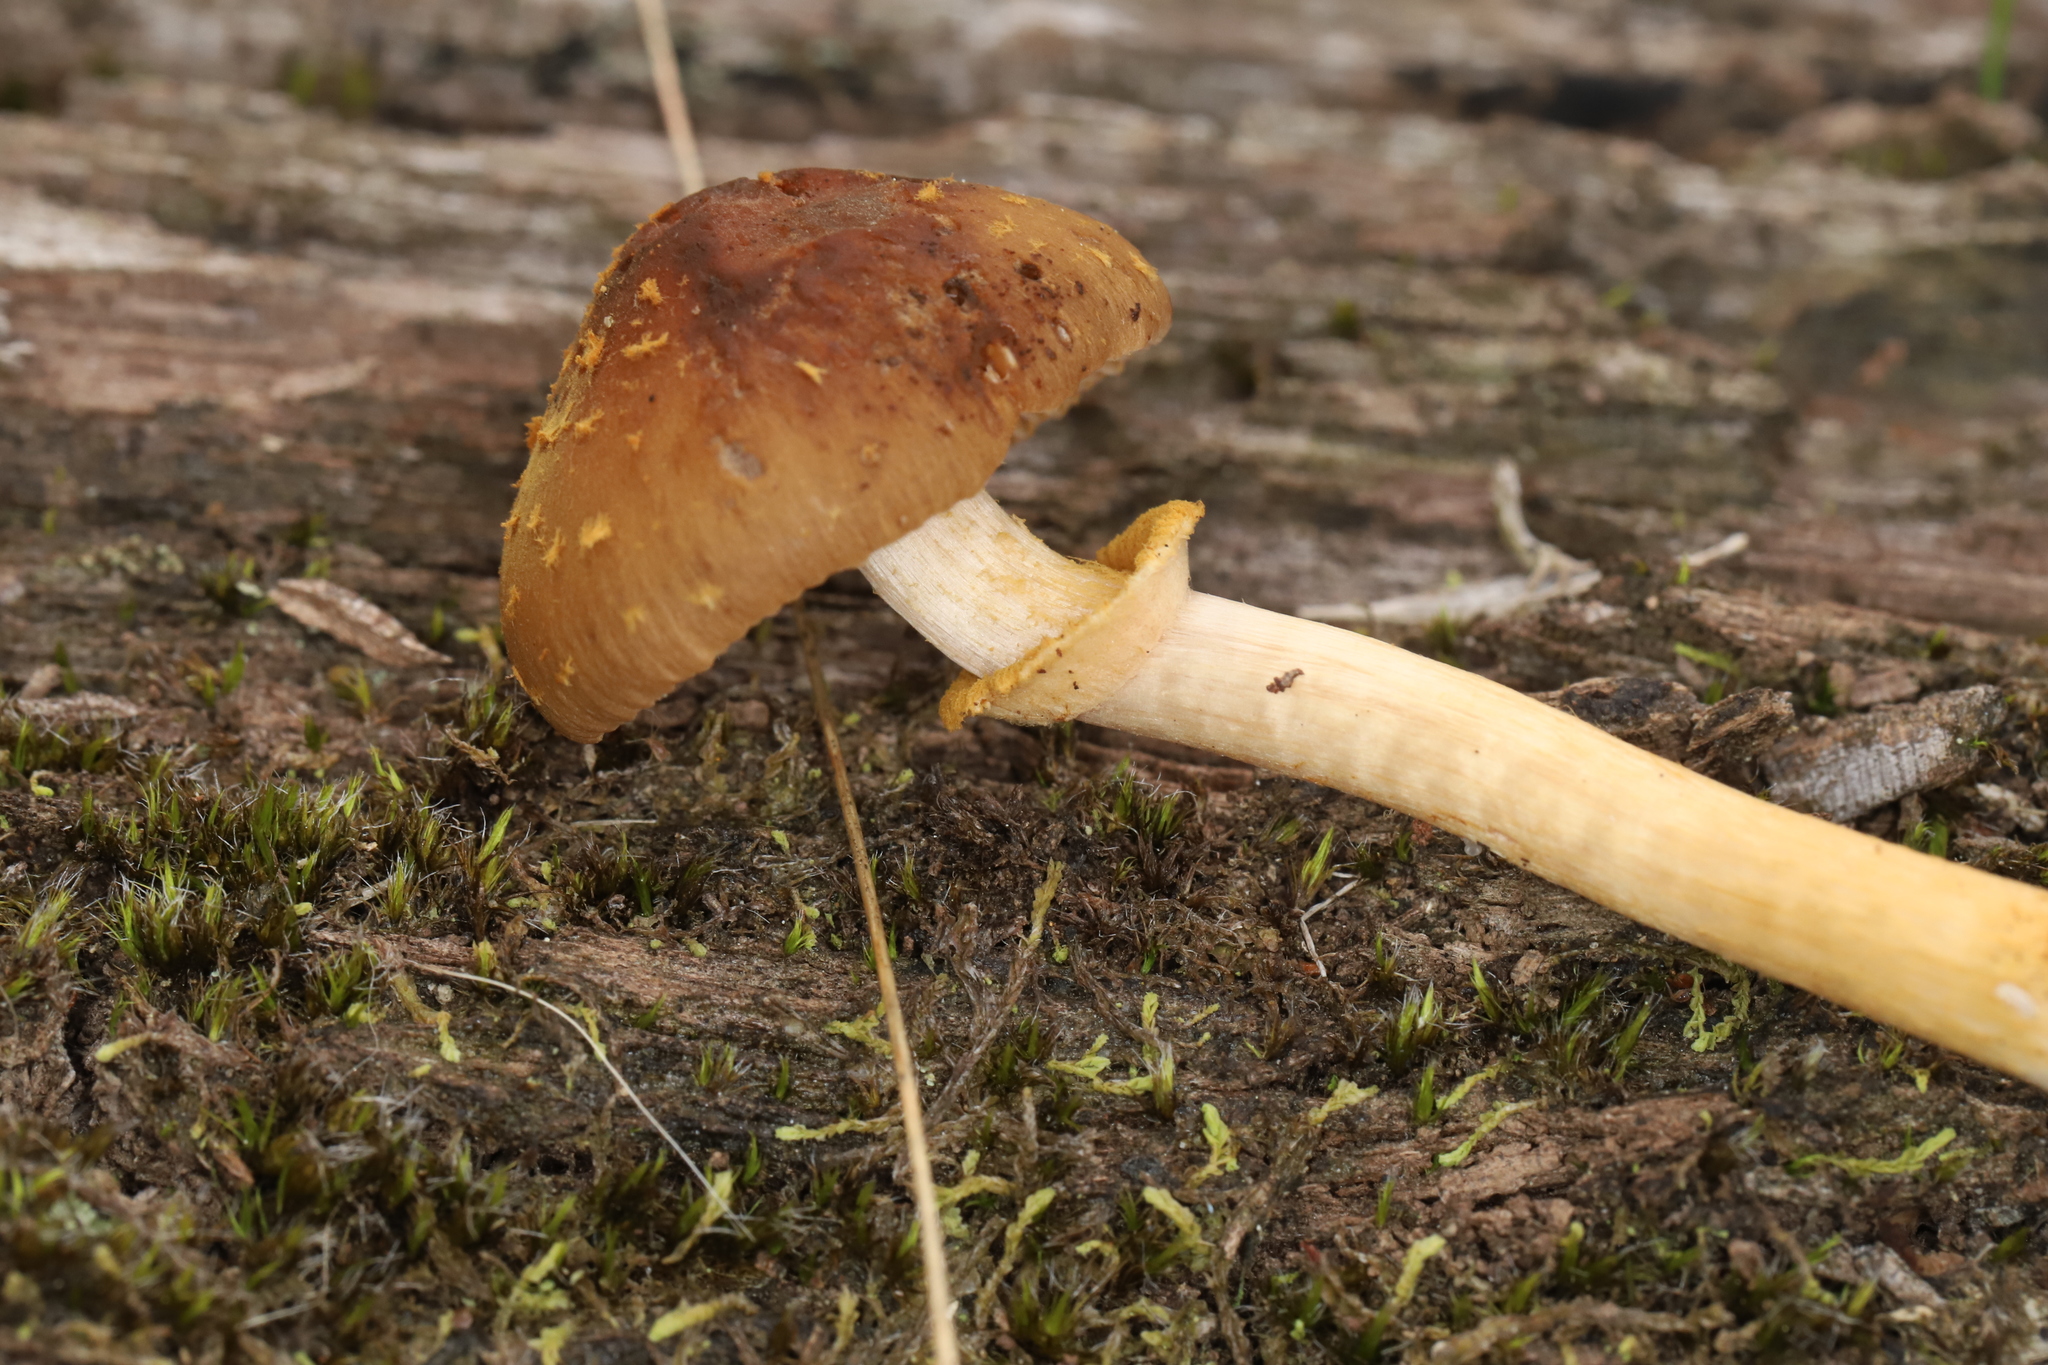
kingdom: Fungi
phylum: Basidiomycota
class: Agaricomycetes
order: Agaricales
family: Bolbitiaceae
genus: Descolea
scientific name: Descolea recedens
